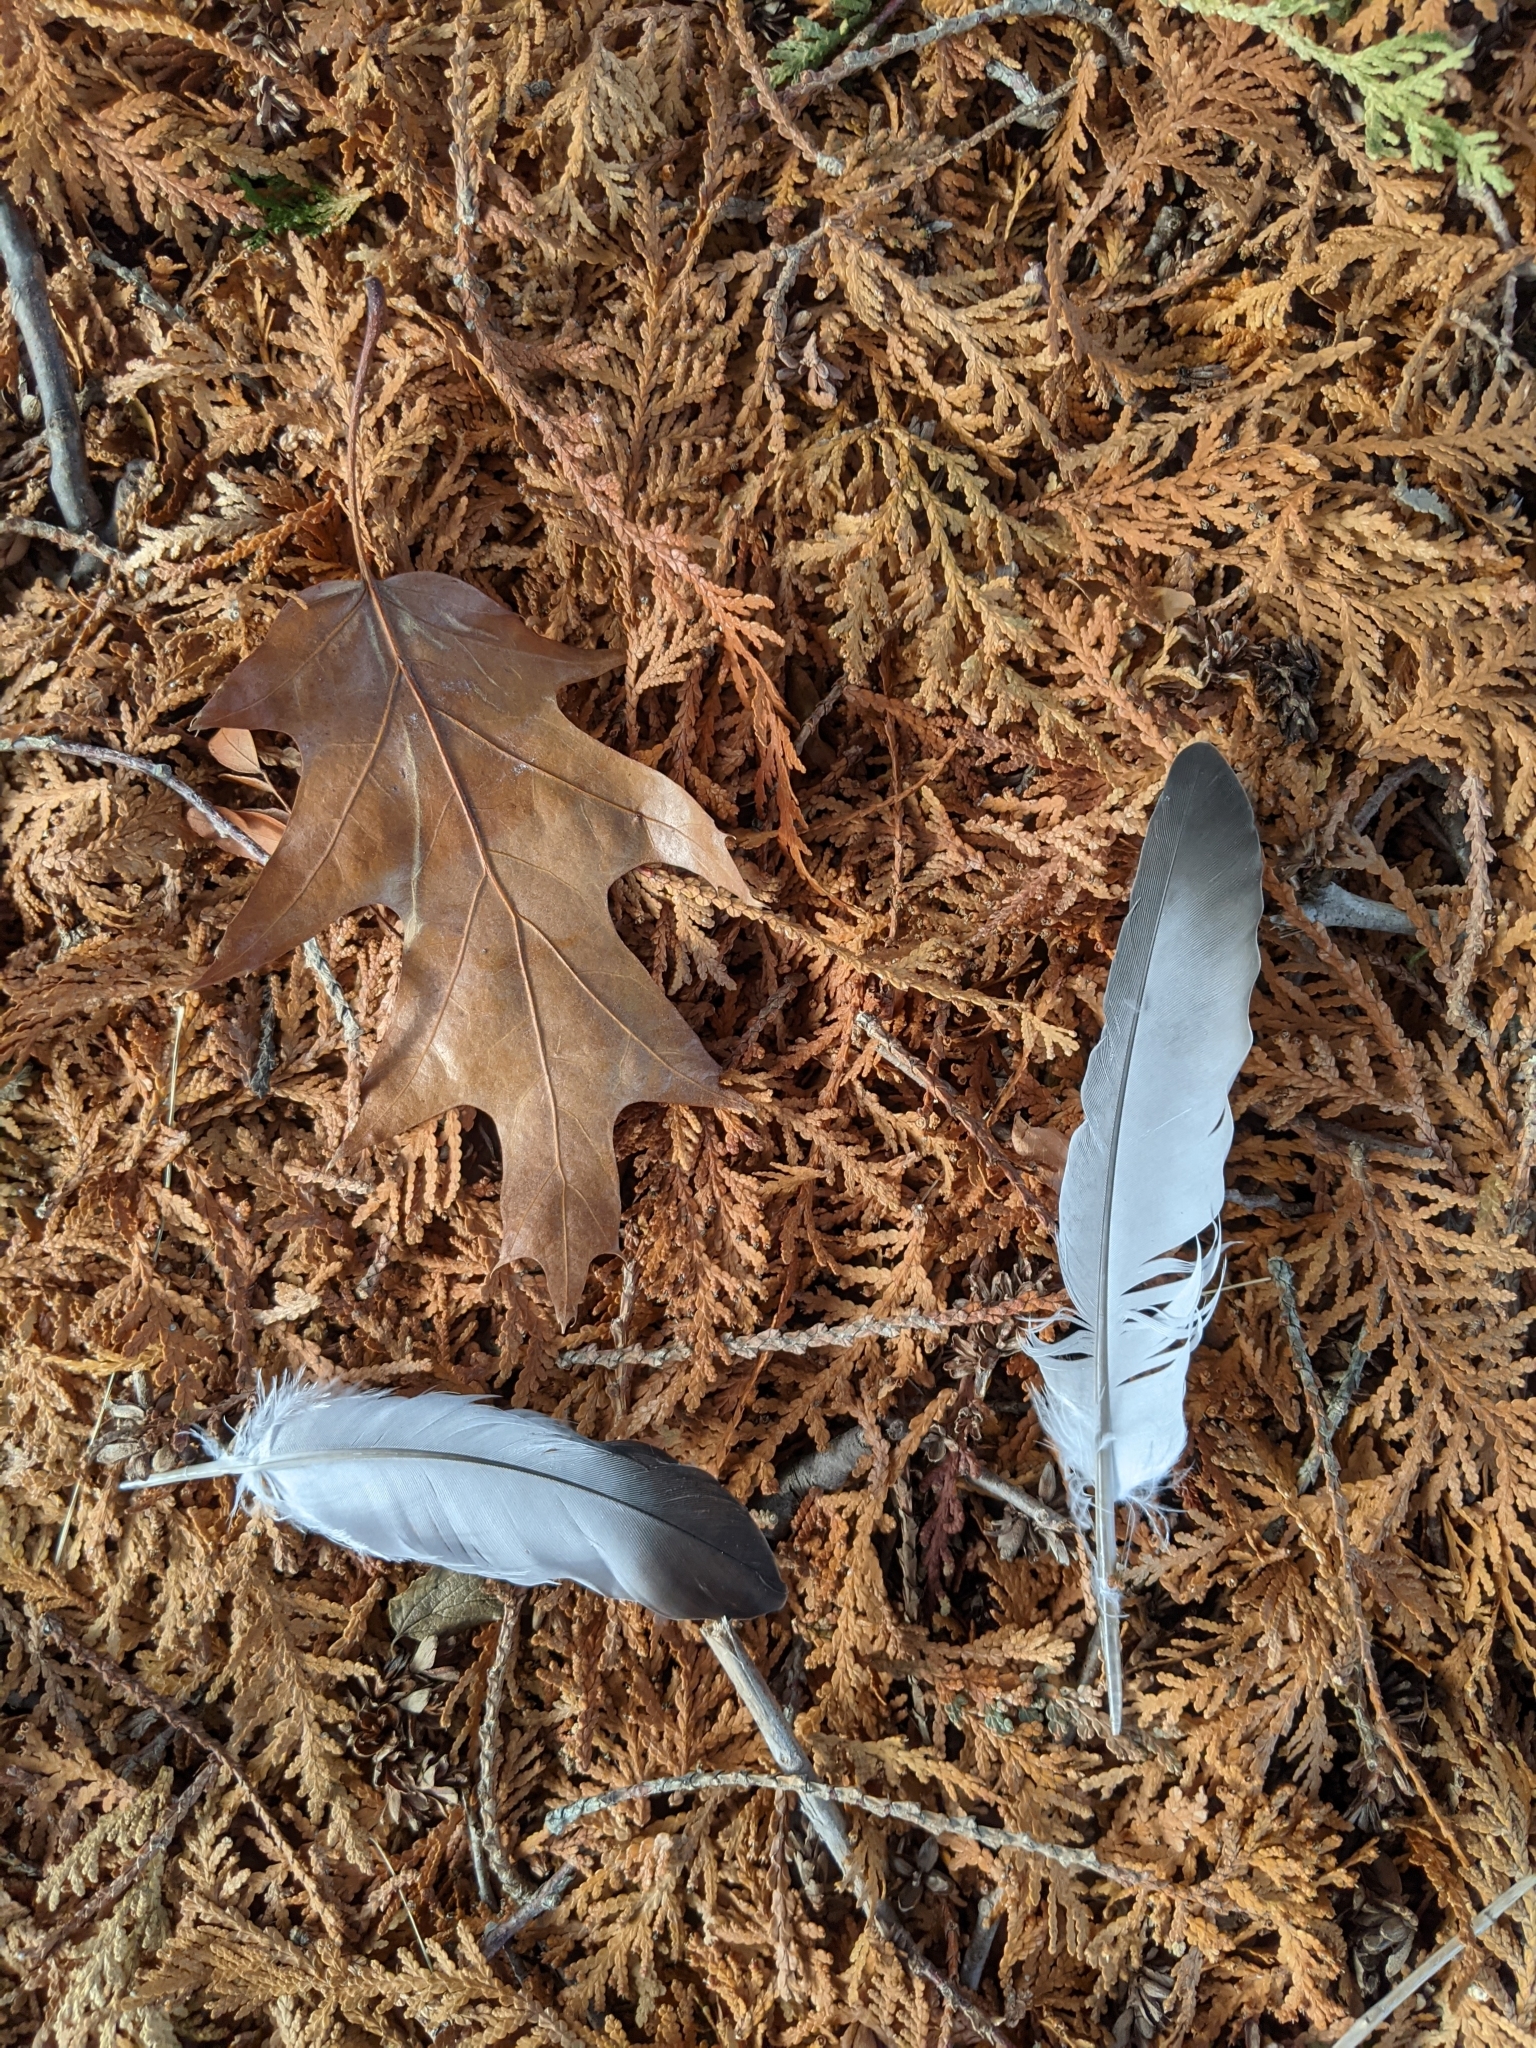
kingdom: Animalia
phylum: Chordata
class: Aves
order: Columbiformes
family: Columbidae
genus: Columba
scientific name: Columba livia
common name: Rock pigeon
